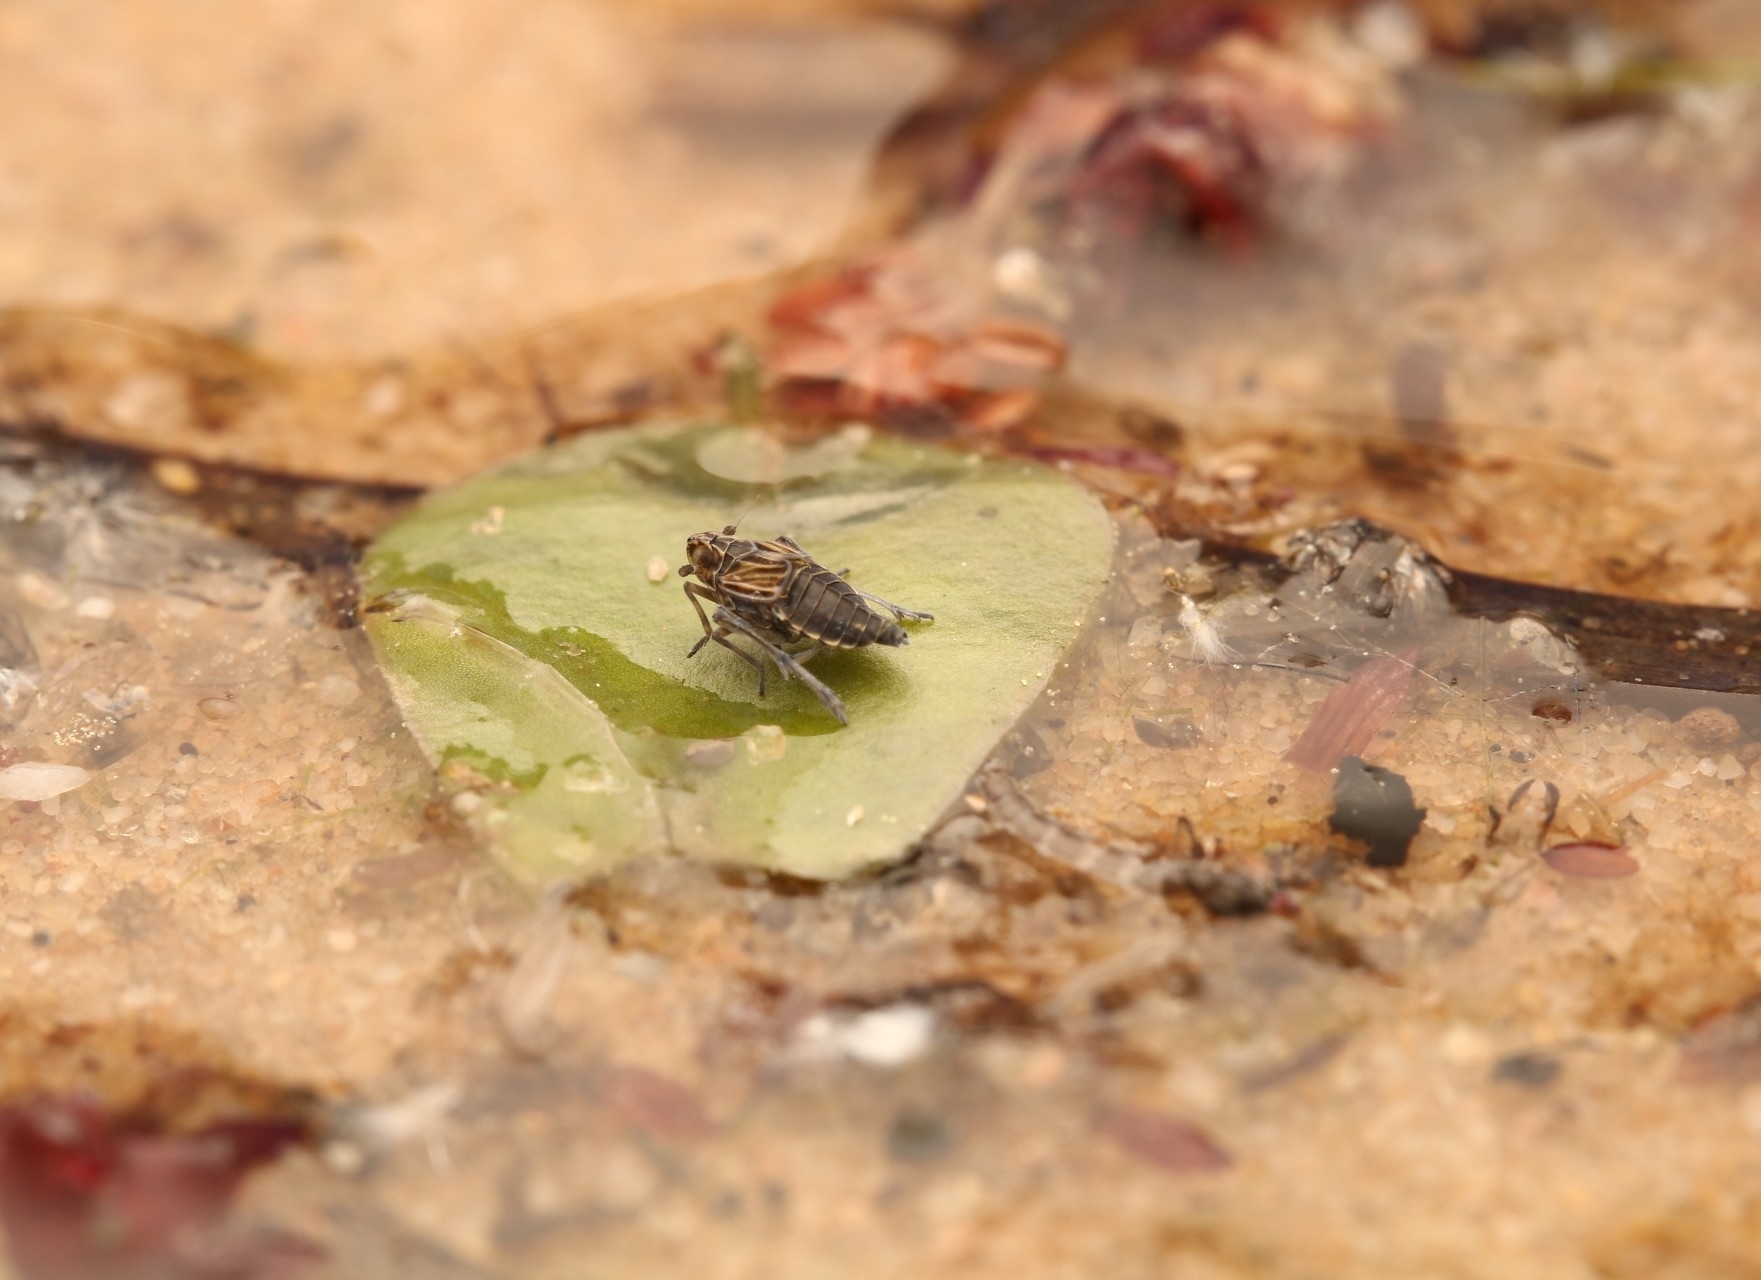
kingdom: Animalia
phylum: Arthropoda
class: Insecta
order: Hemiptera
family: Delphacidae
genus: Megamelus
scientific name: Megamelus davisi
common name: Planthopper
